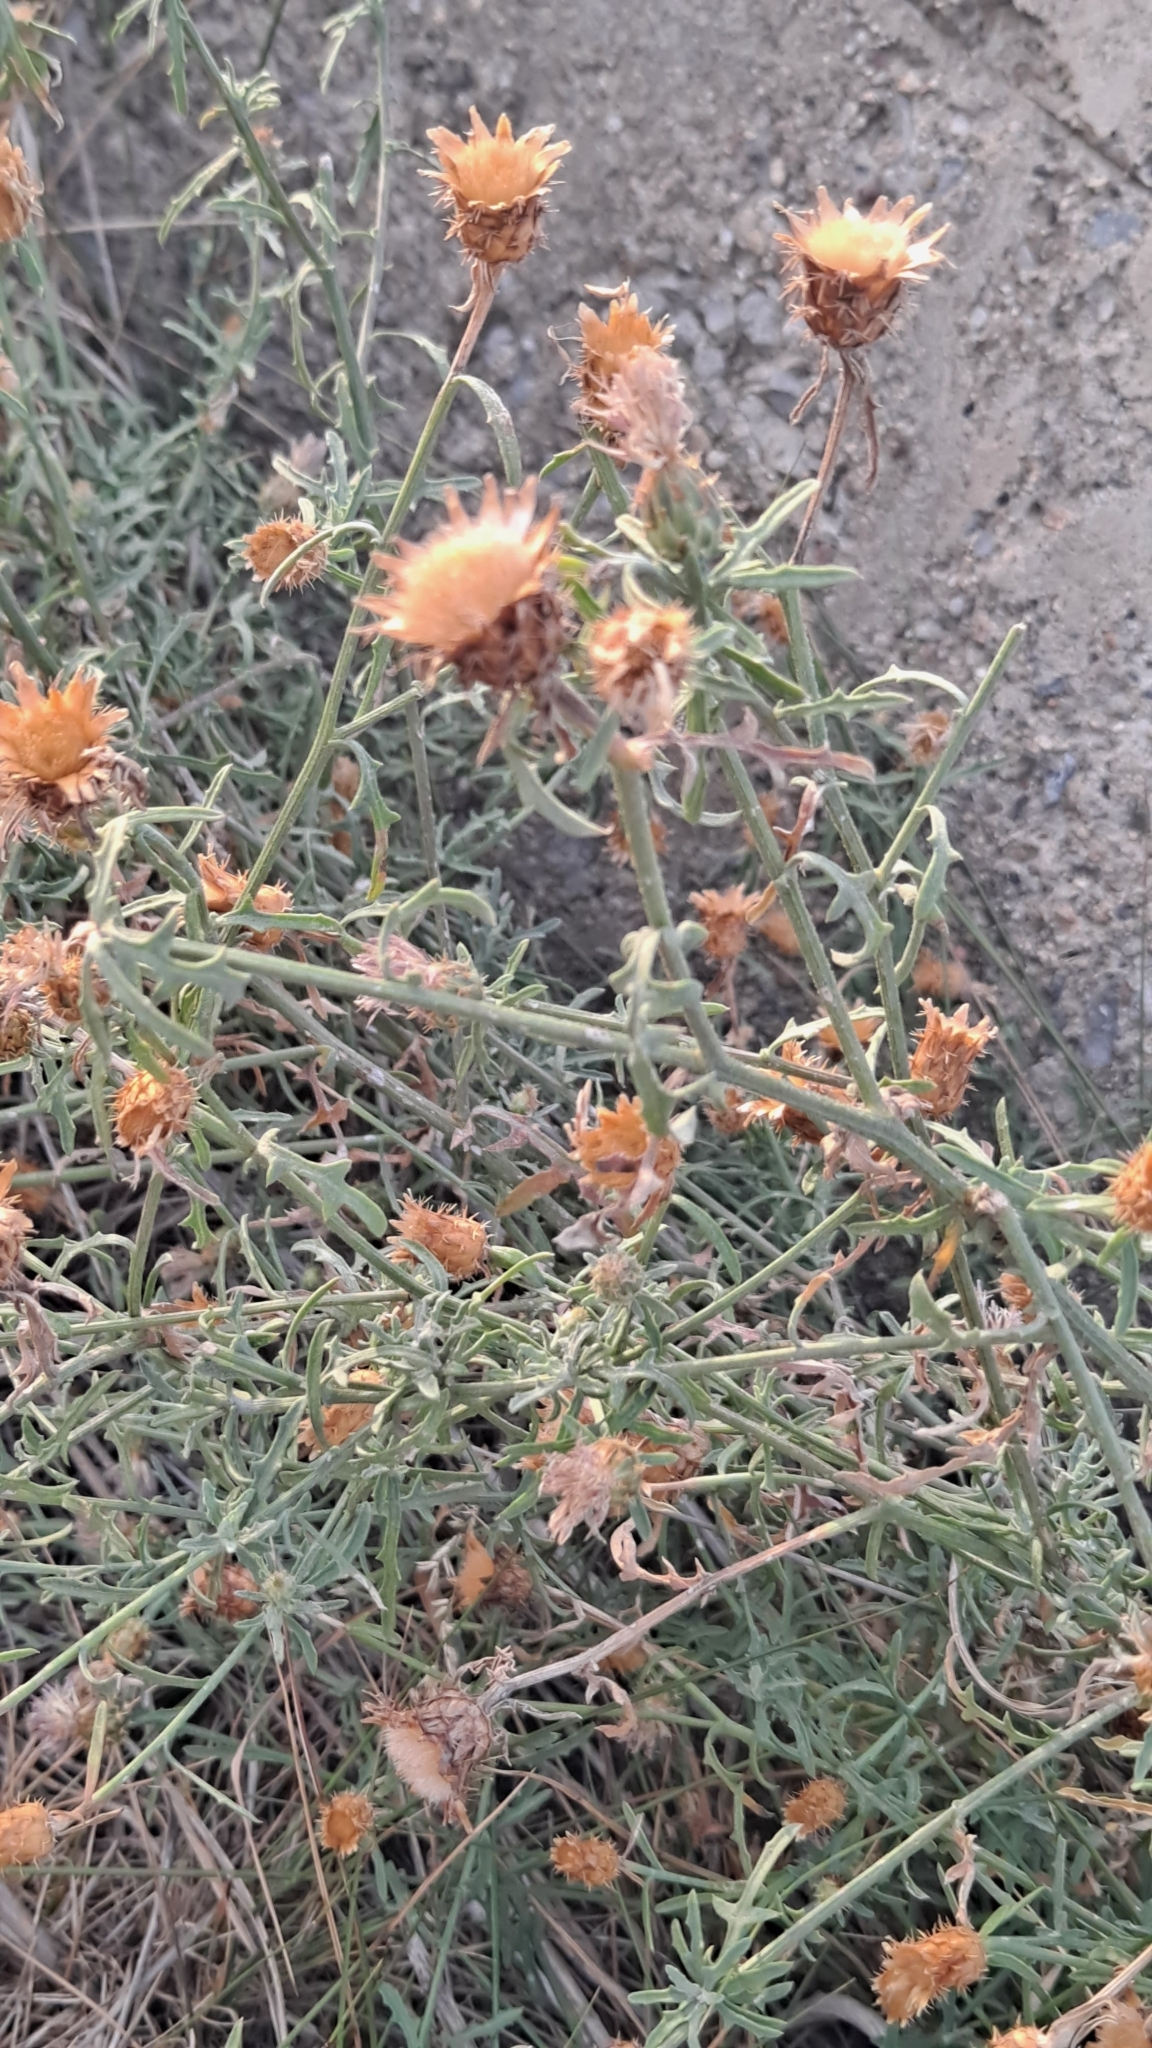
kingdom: Plantae
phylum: Tracheophyta
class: Magnoliopsida
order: Asterales
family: Asteraceae
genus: Centaurea
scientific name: Centaurea aspera
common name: Rough star-thistle
